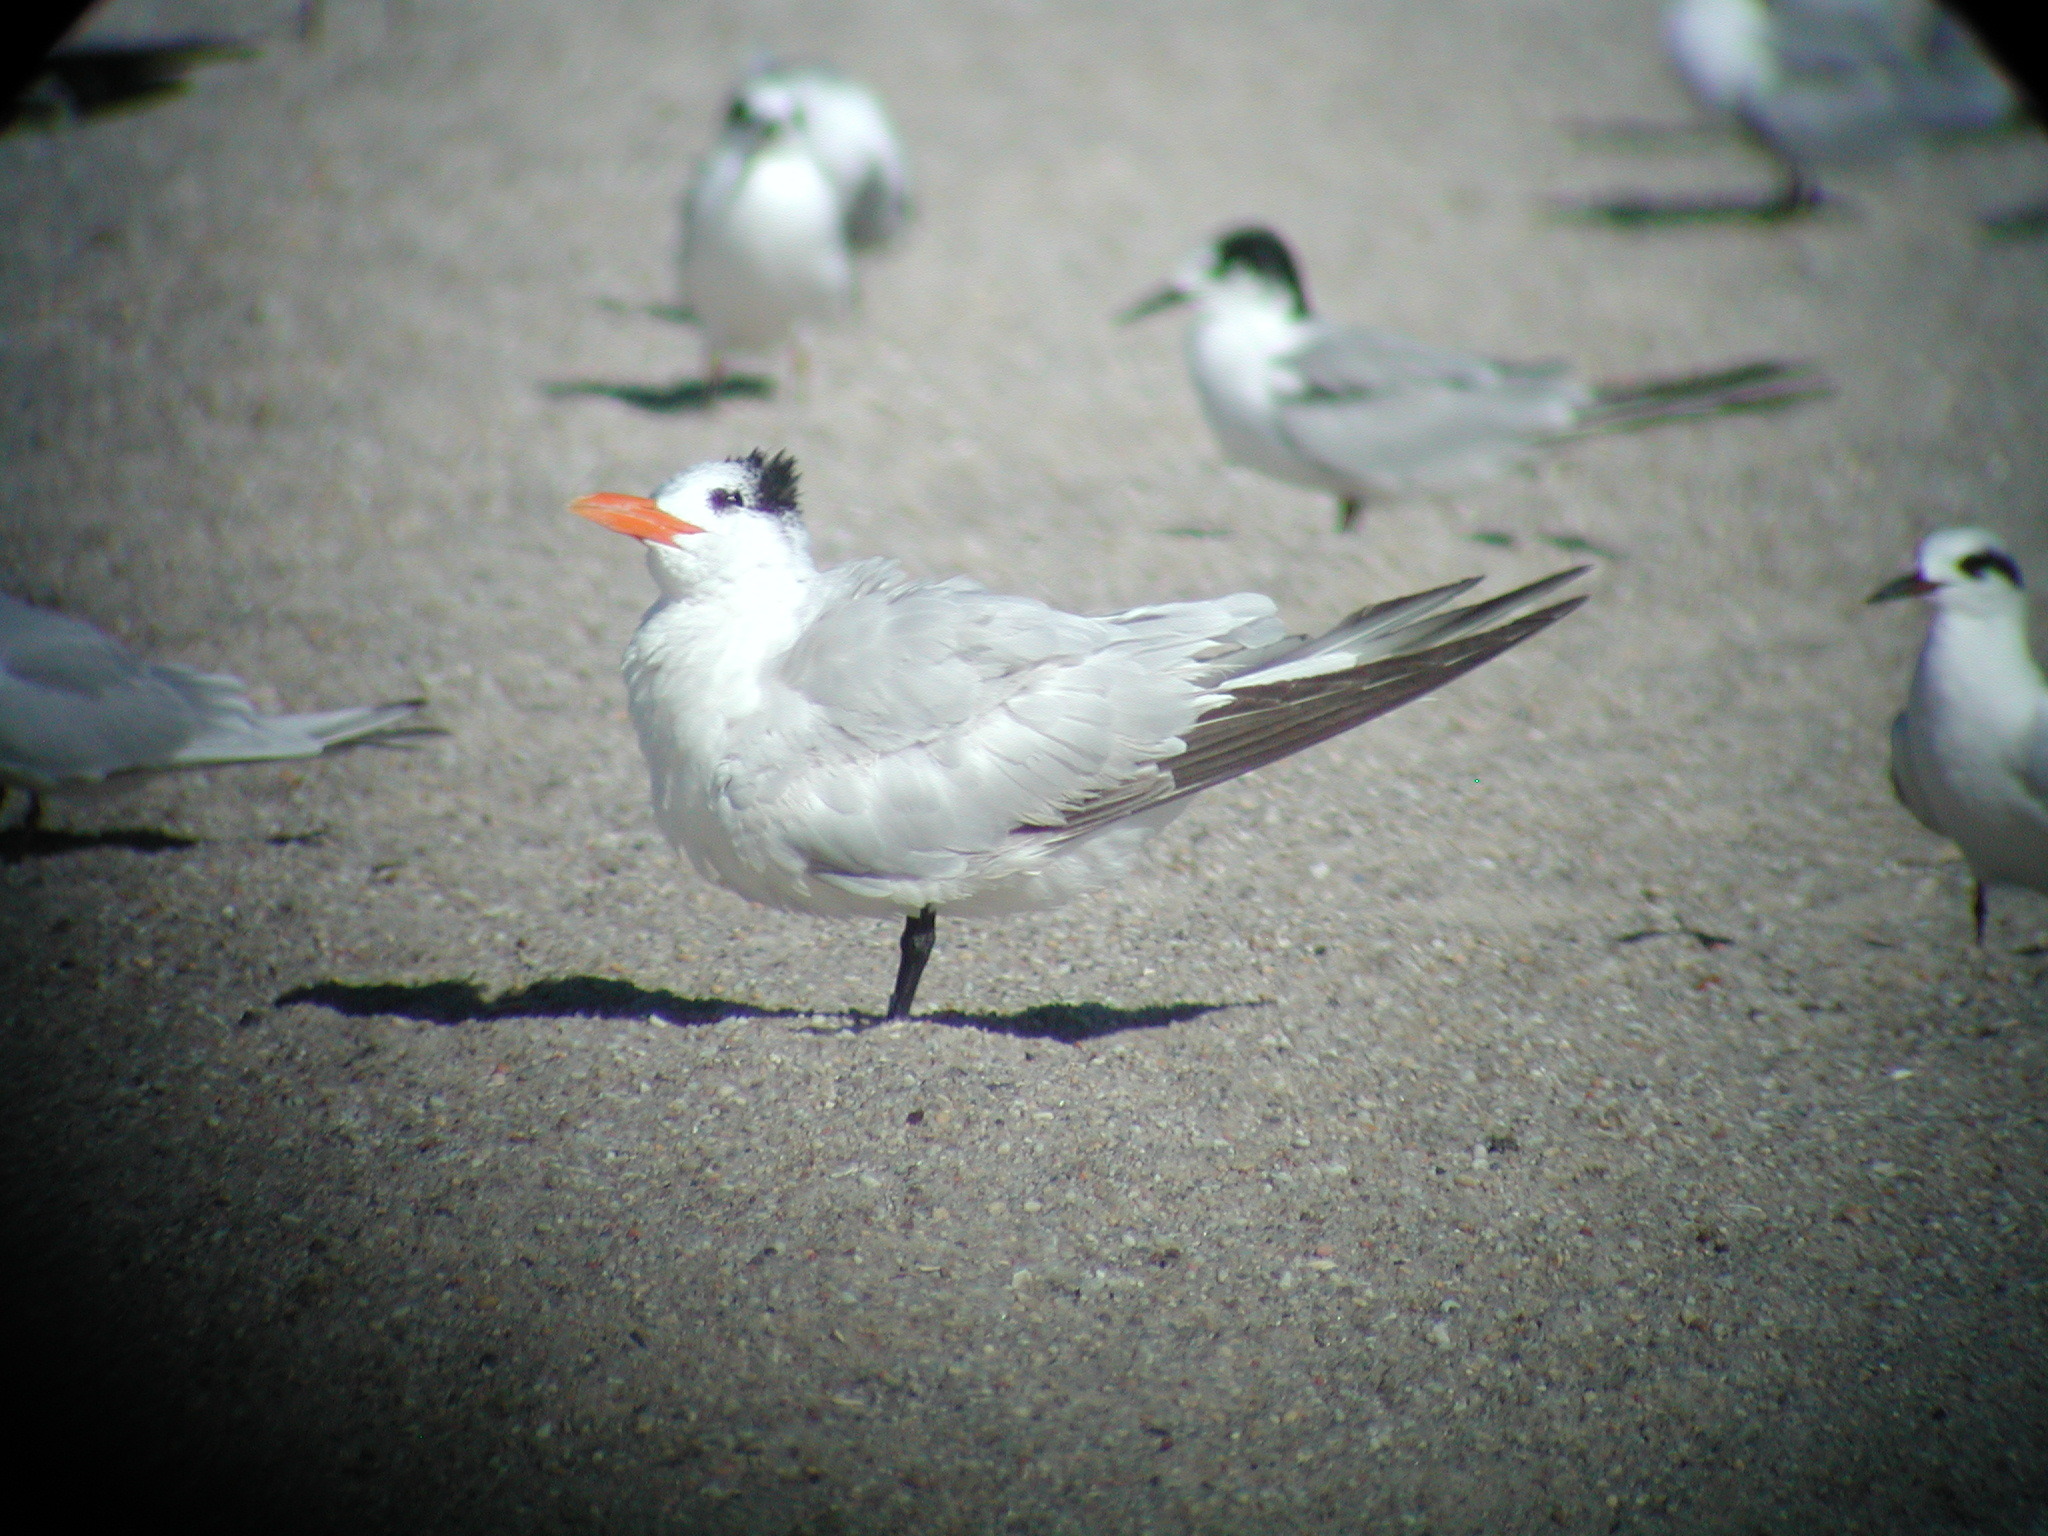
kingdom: Animalia
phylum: Chordata
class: Aves
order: Charadriiformes
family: Laridae
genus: Thalasseus
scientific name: Thalasseus maximus
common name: Royal tern
